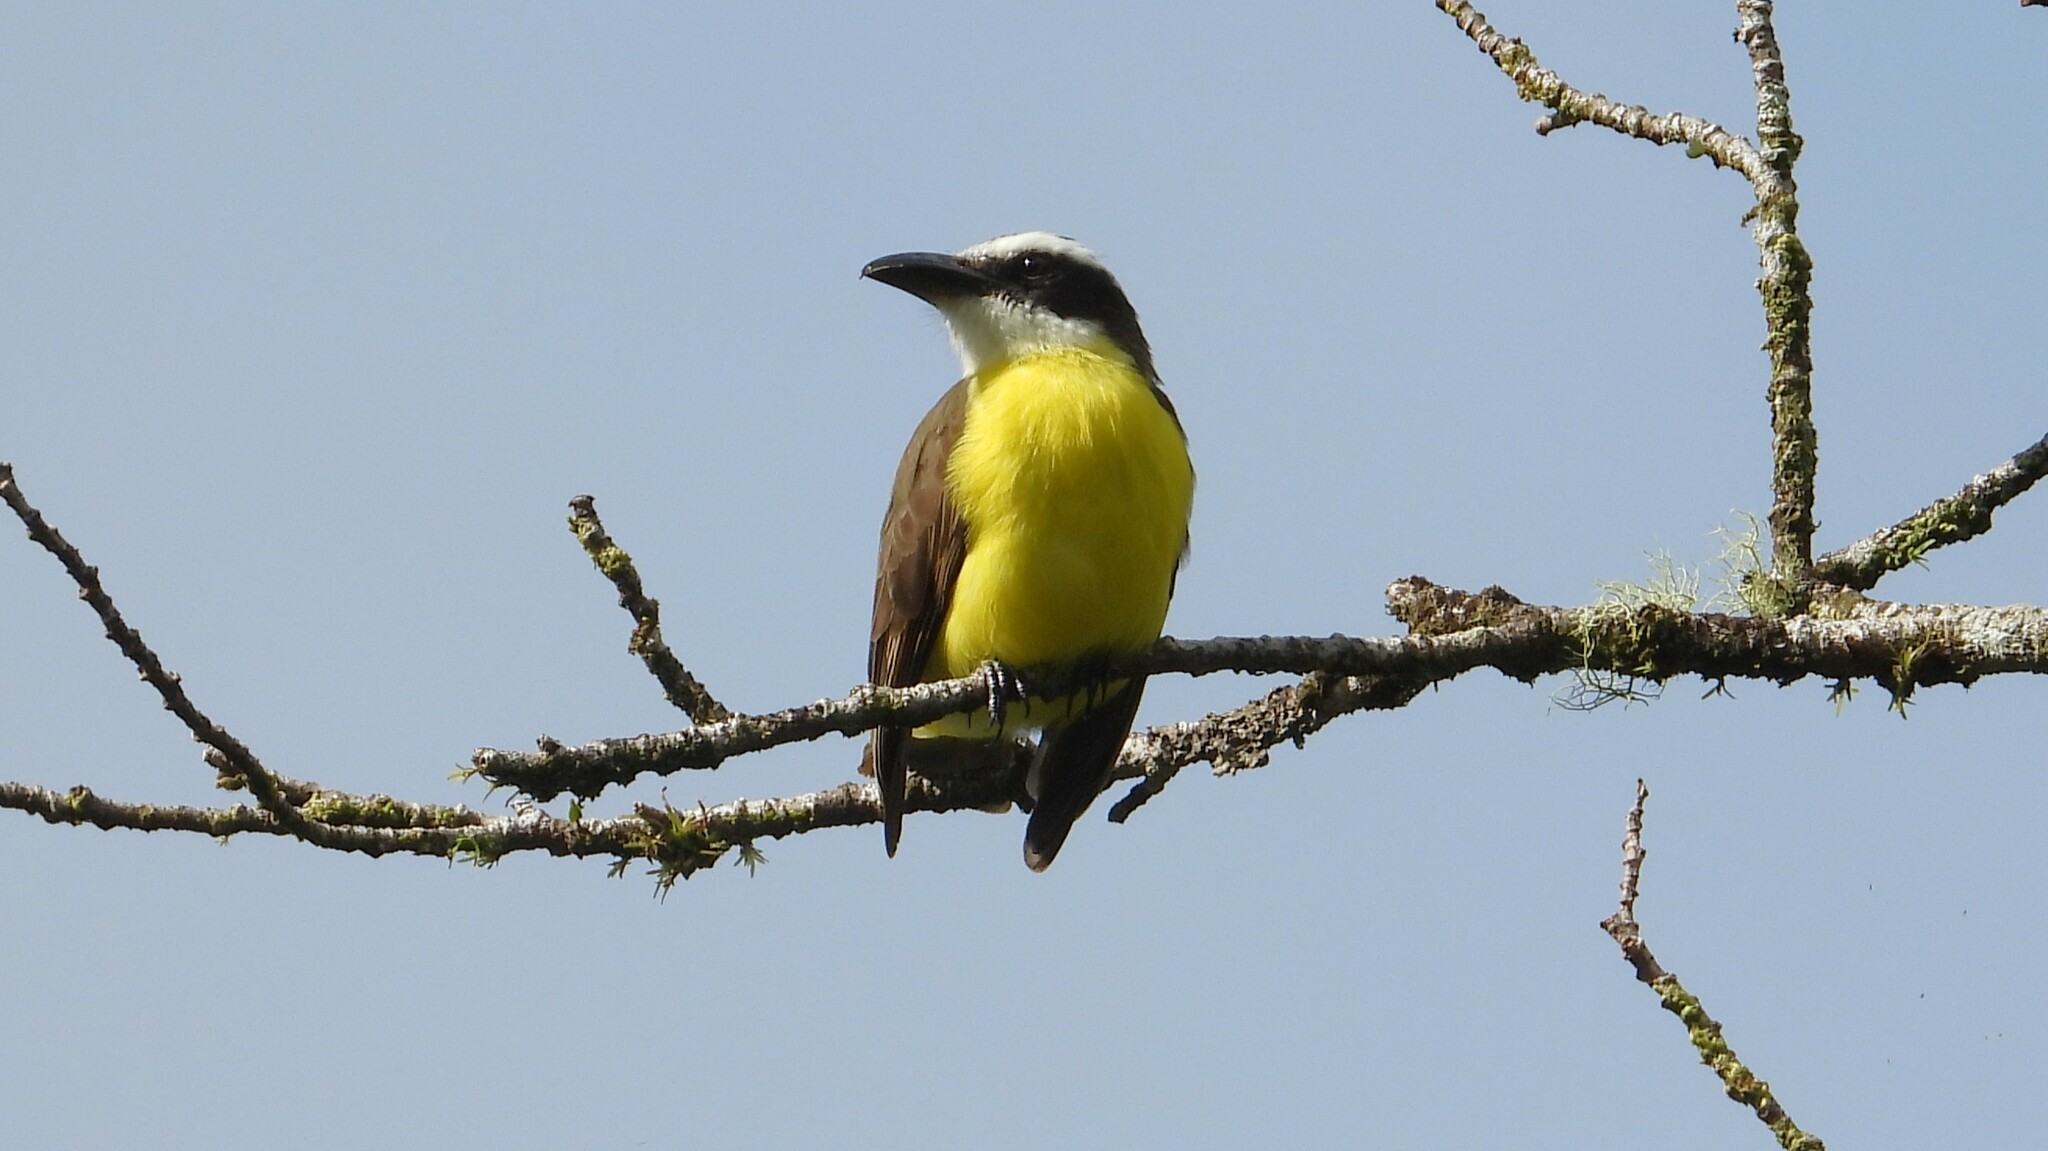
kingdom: Animalia
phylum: Chordata
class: Aves
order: Passeriformes
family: Tyrannidae
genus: Megarynchus
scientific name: Megarynchus pitangua
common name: Boat-billed flycatcher
